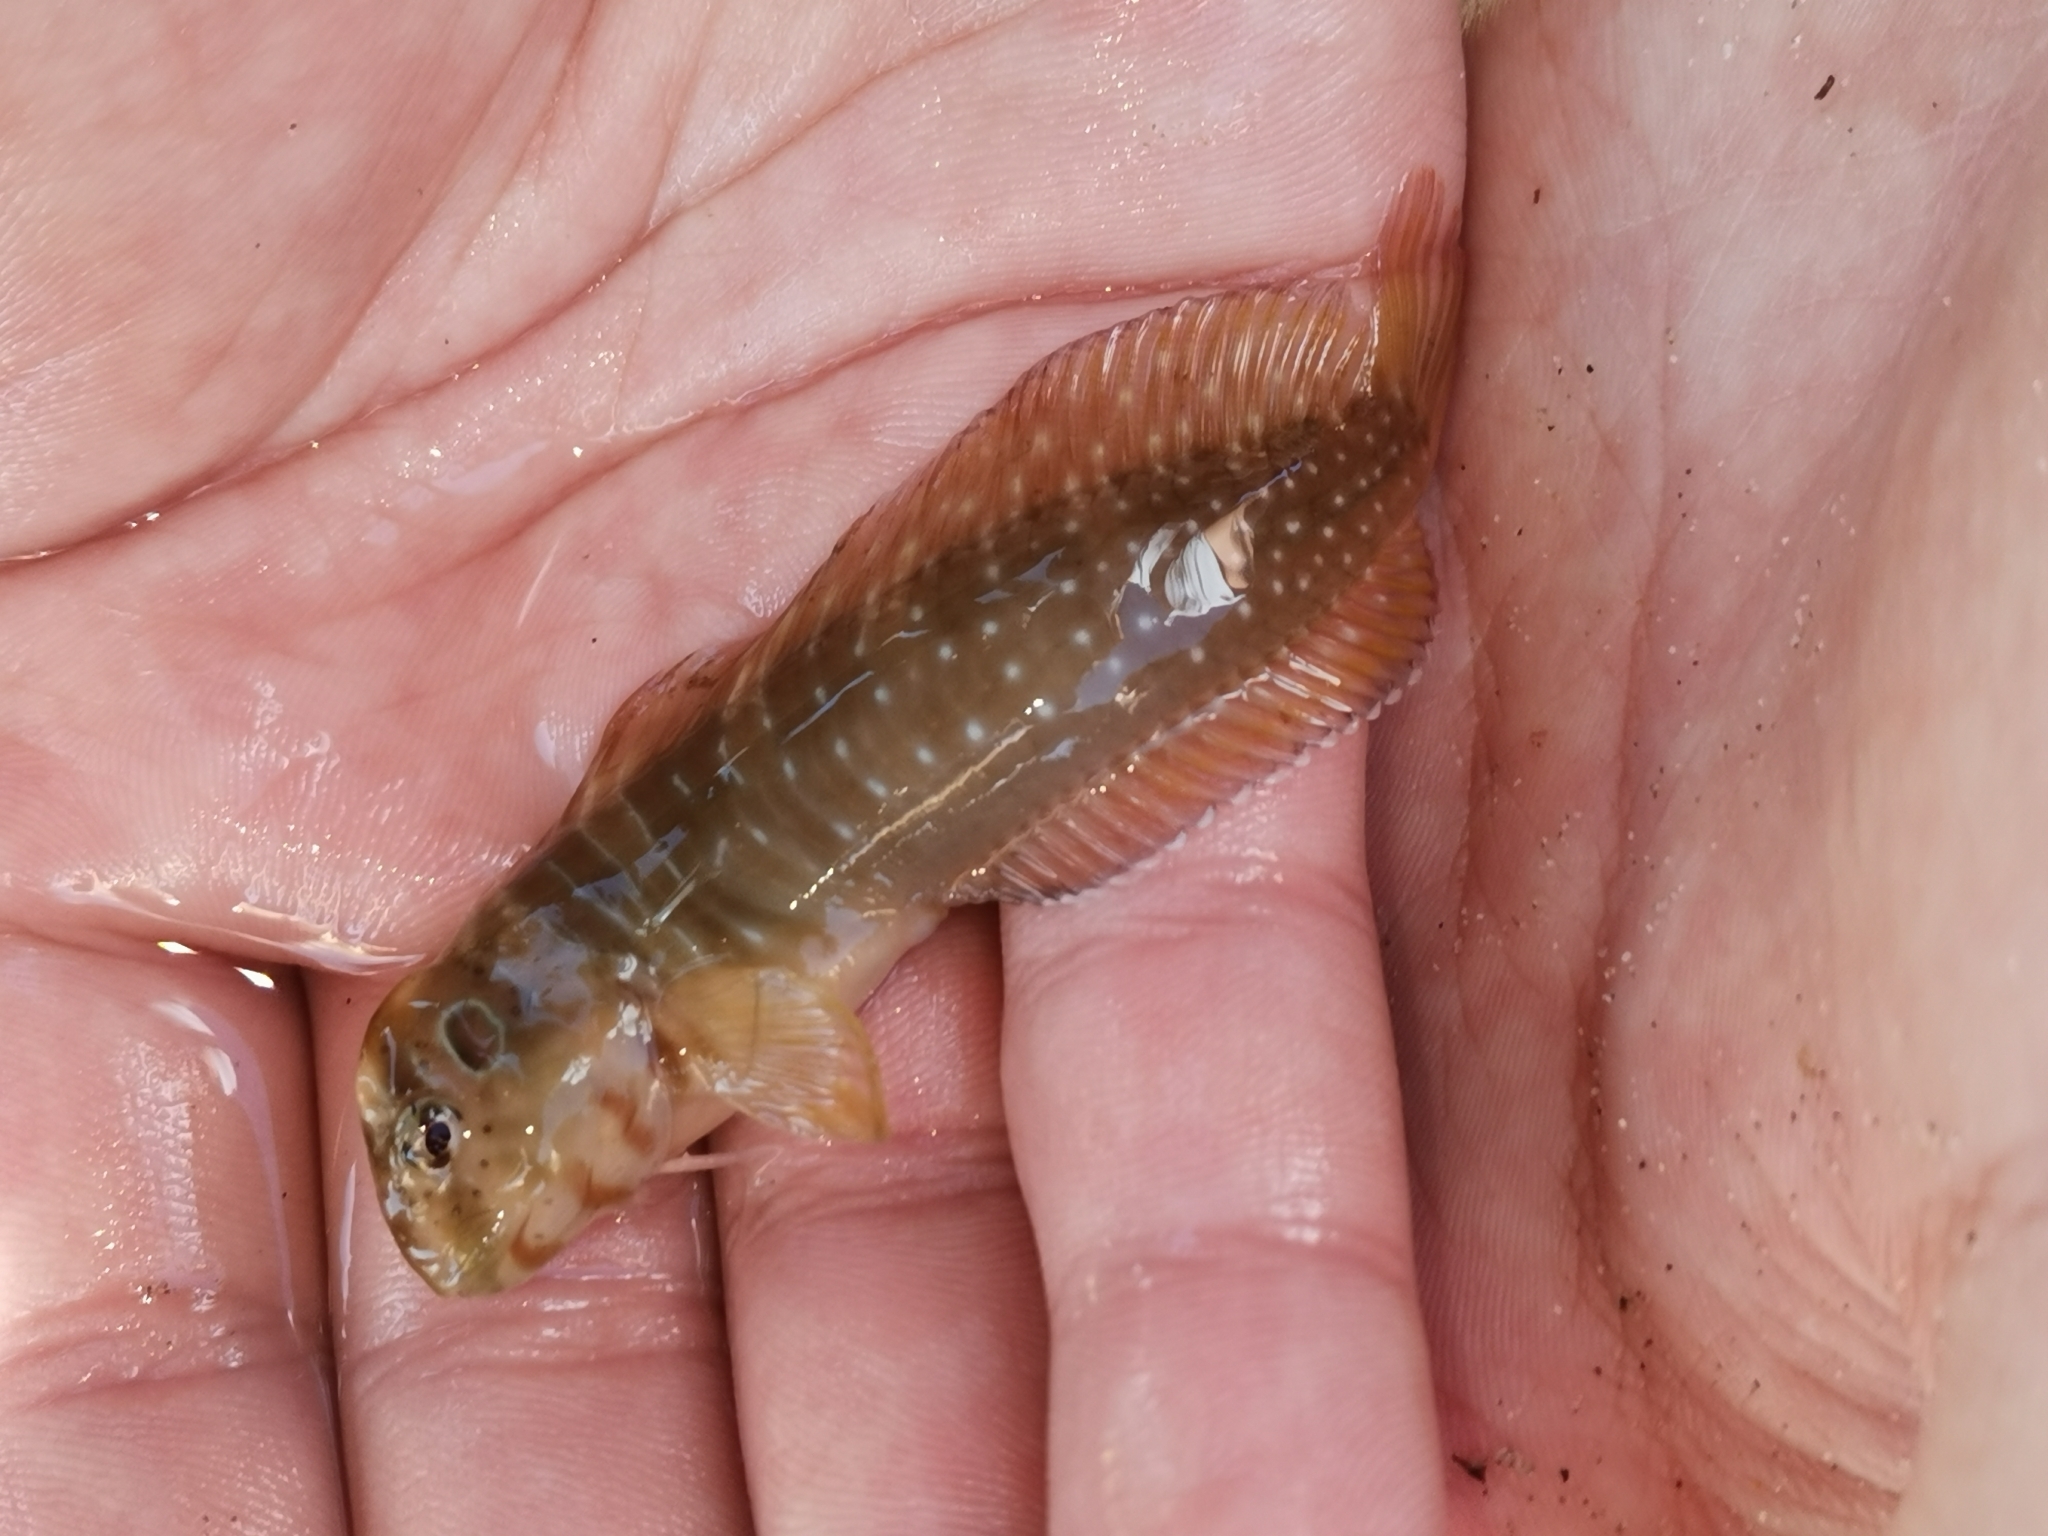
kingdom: Animalia
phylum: Chordata
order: Perciformes
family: Blenniidae
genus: Salaria
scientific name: Salaria pavo
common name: Peacock blenny
